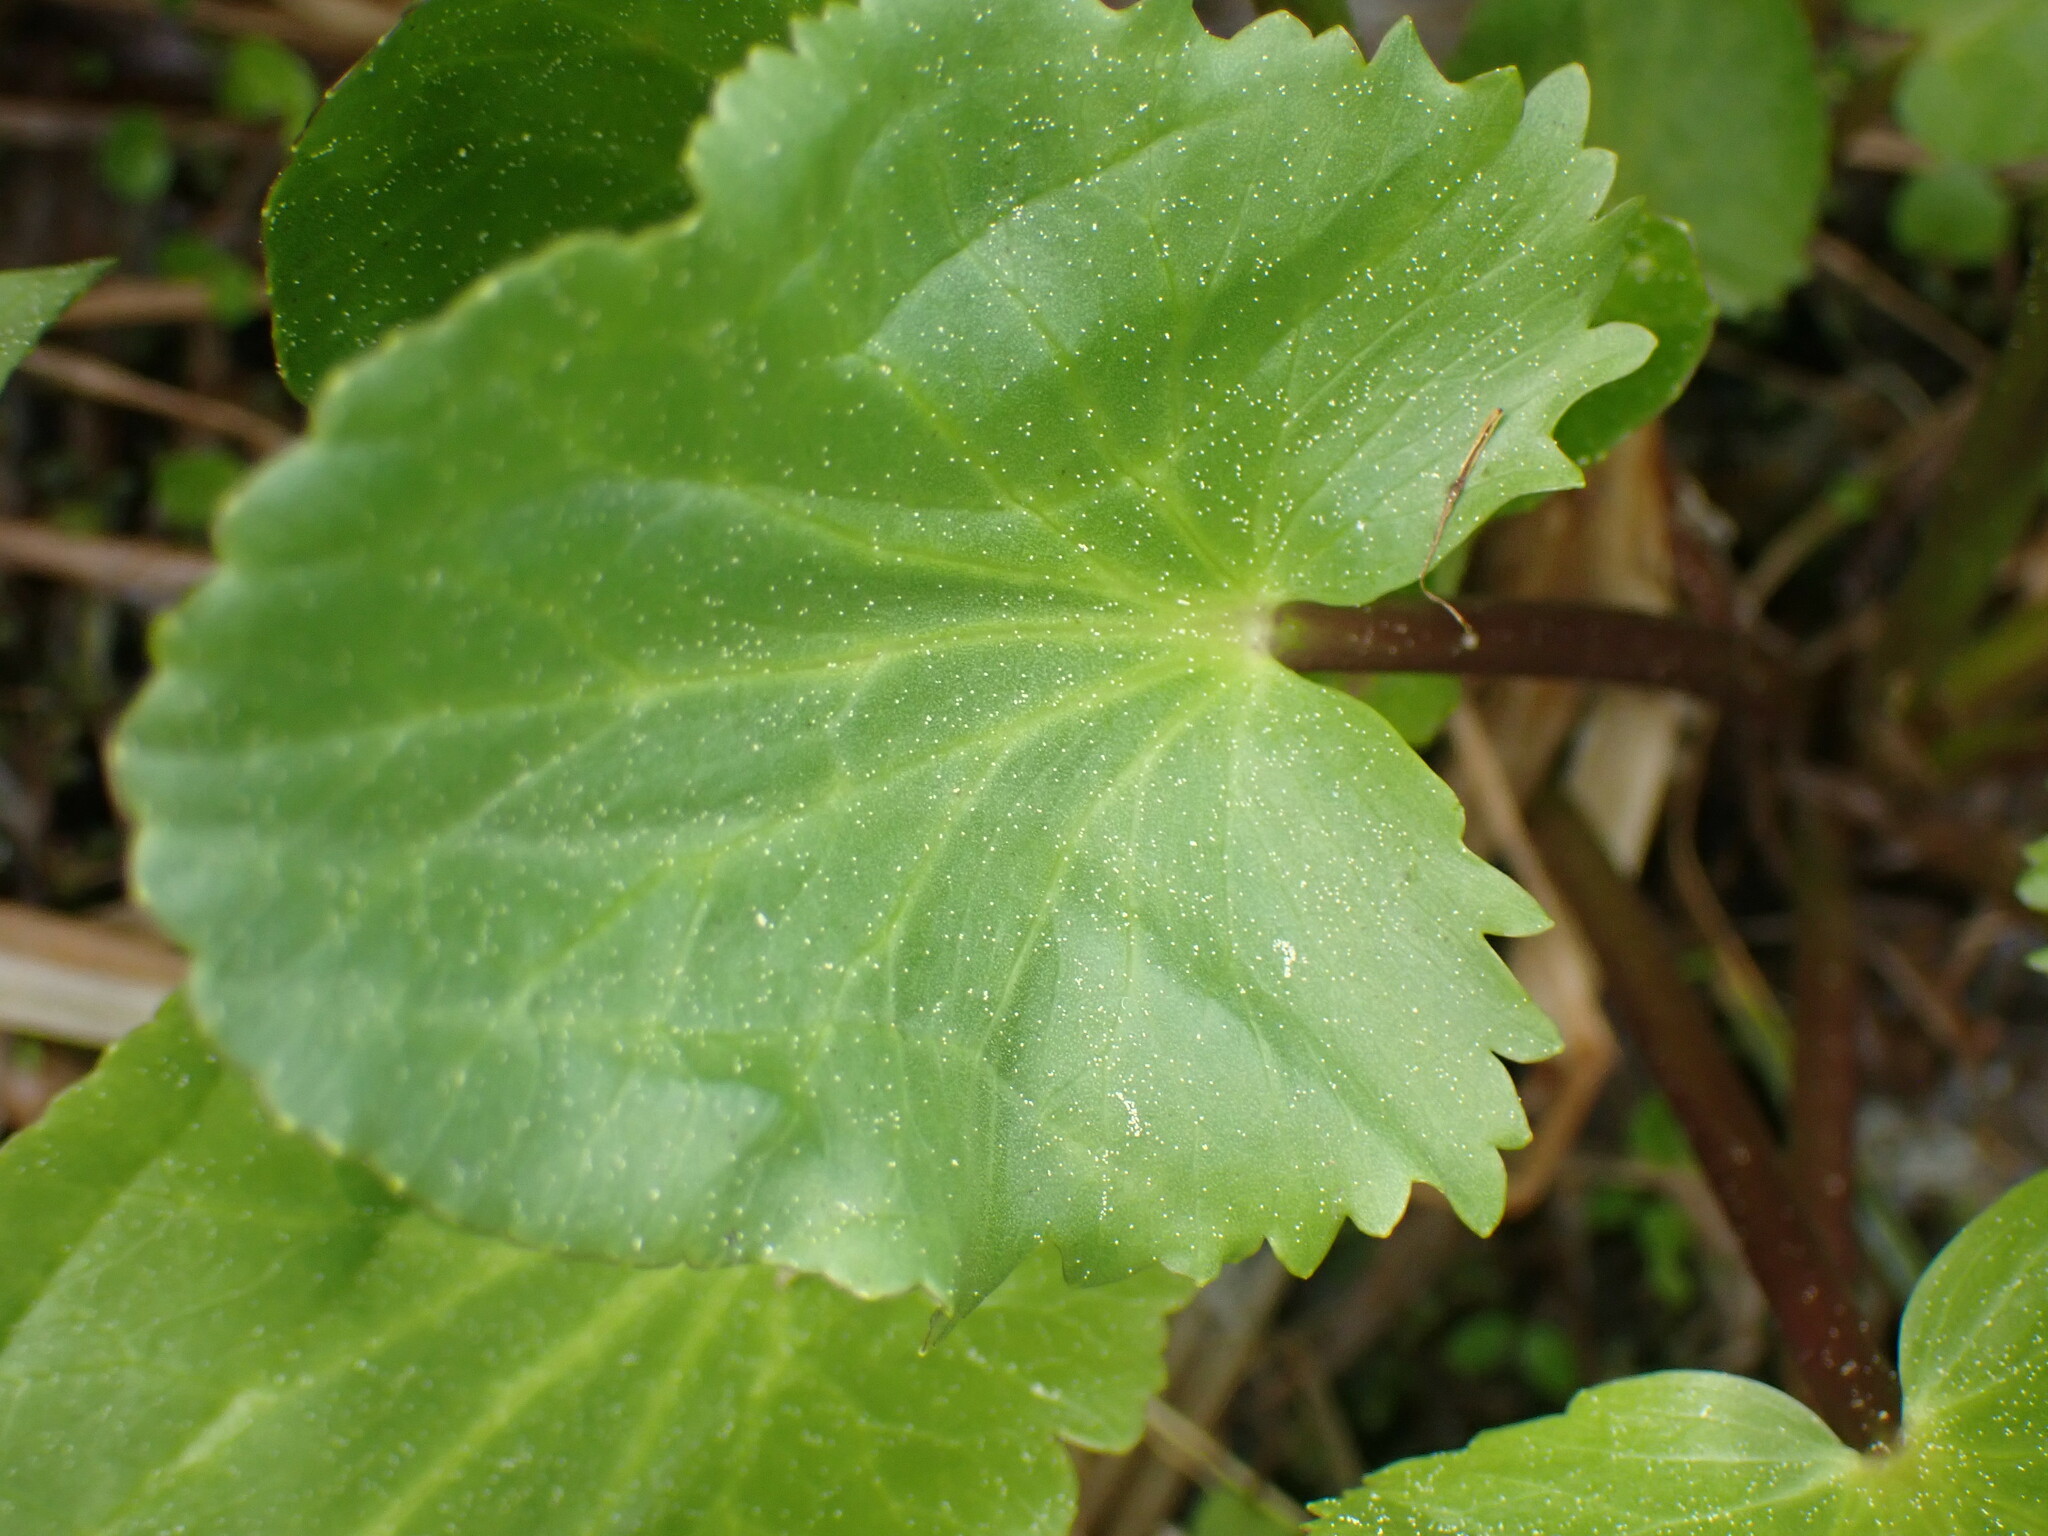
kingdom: Plantae
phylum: Tracheophyta
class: Magnoliopsida
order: Ranunculales
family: Ranunculaceae
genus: Caltha
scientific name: Caltha leptosepala
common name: Elkslip
